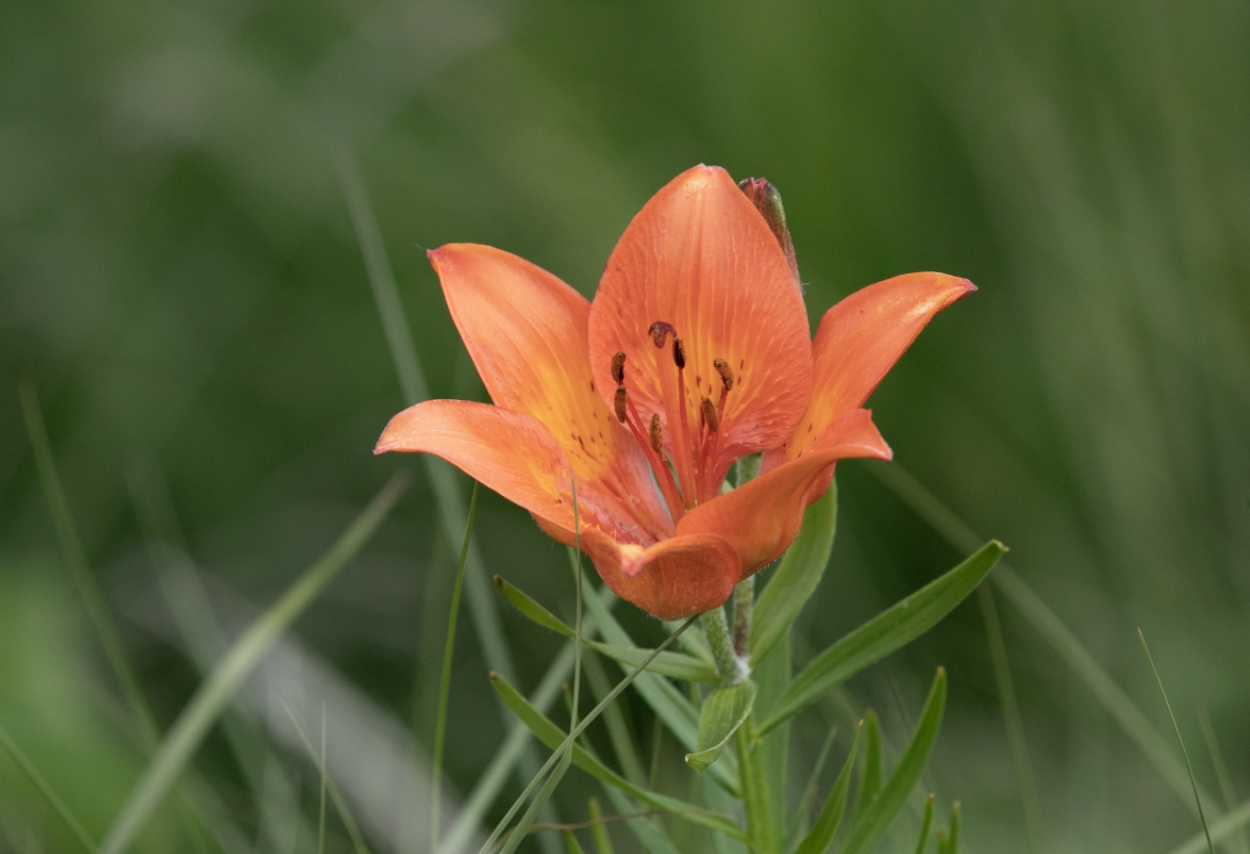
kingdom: Plantae
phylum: Tracheophyta
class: Liliopsida
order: Liliales
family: Liliaceae
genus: Lilium
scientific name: Lilium bulbiferum
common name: Orange lily
